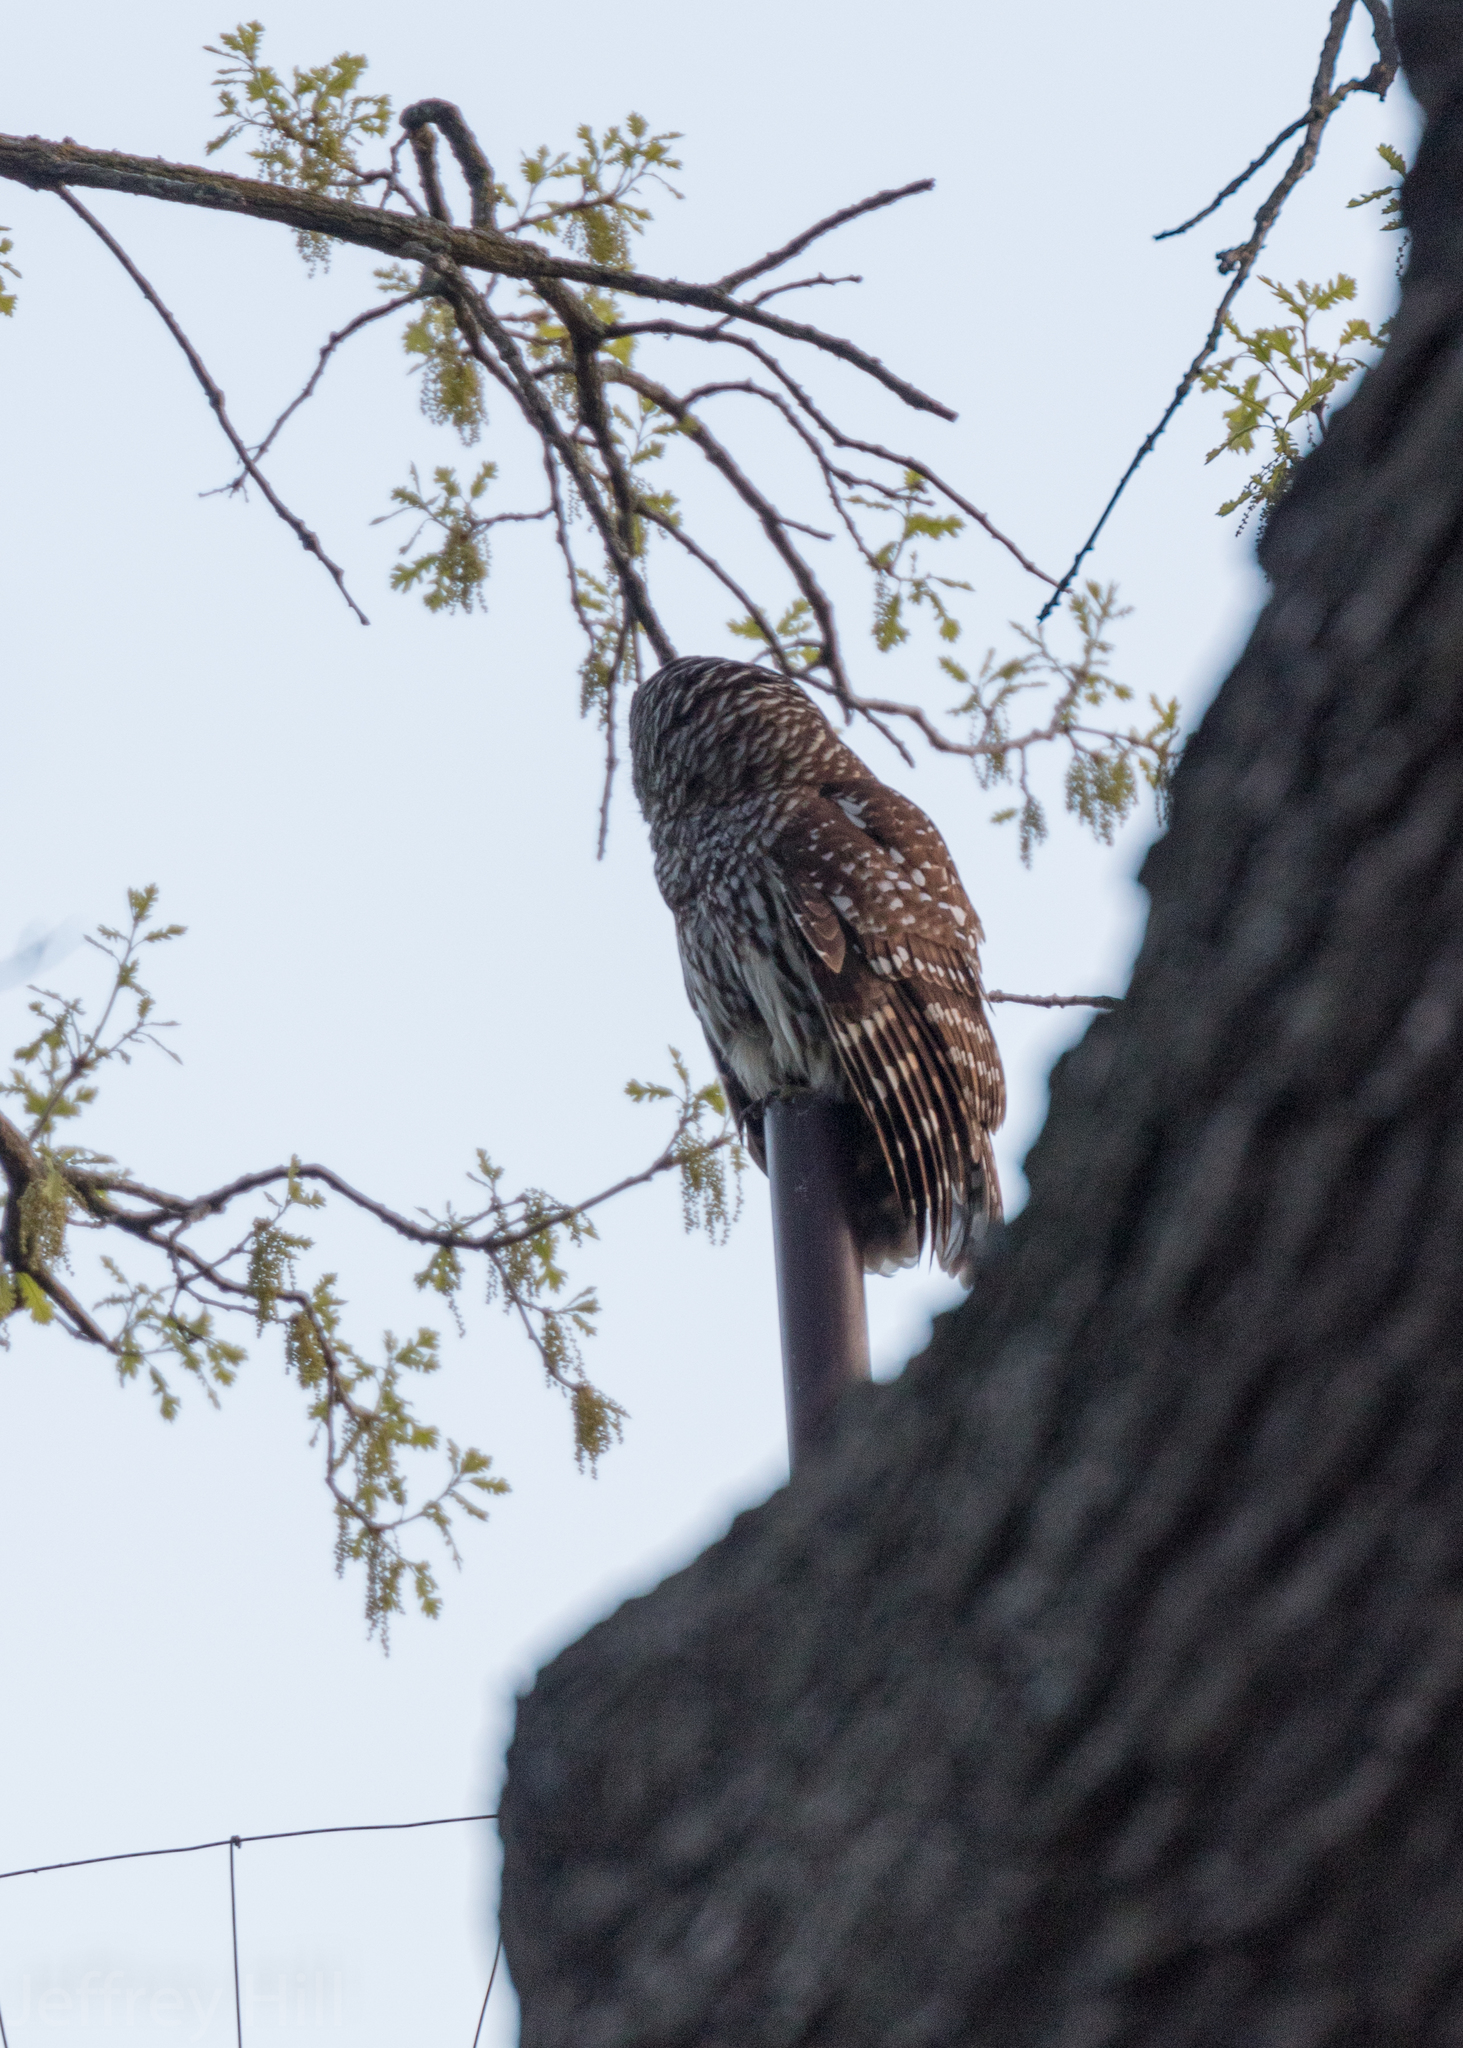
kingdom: Animalia
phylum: Chordata
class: Aves
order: Strigiformes
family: Strigidae
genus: Strix
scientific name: Strix varia
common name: Barred owl
